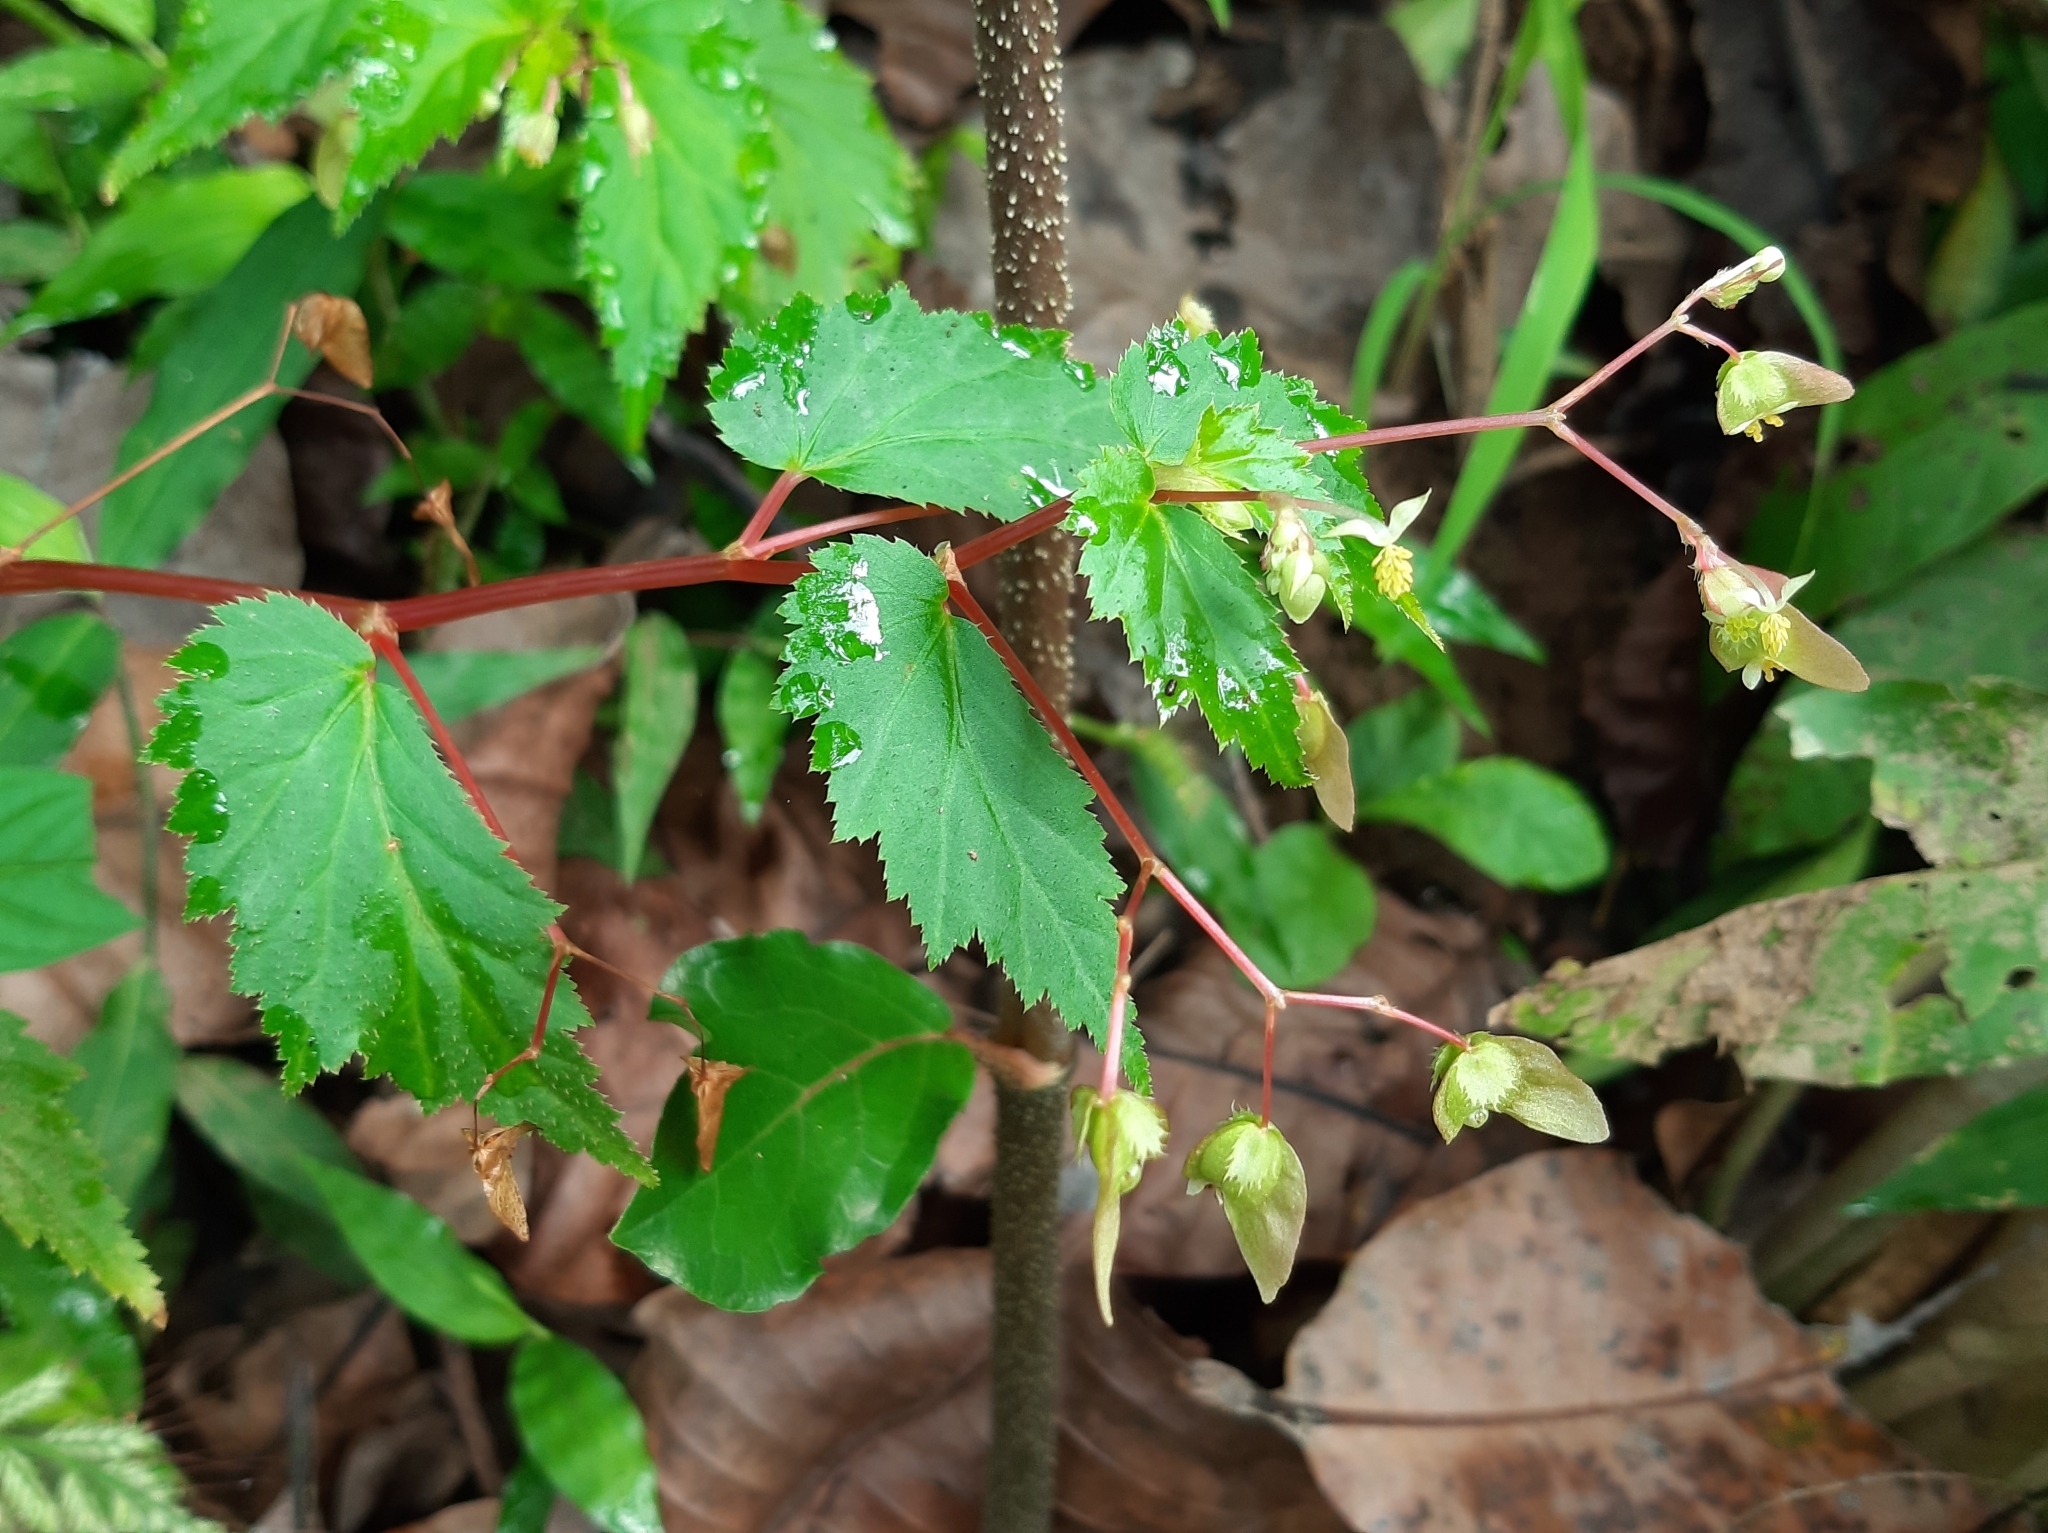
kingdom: Plantae
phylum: Tracheophyta
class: Magnoliopsida
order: Cucurbitales
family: Begoniaceae
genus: Begonia
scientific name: Begonia hirsuta
